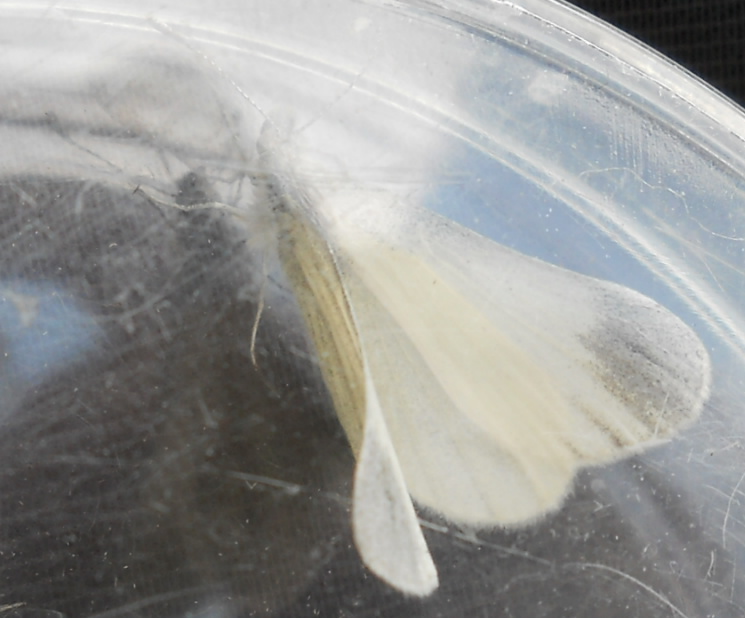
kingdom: Animalia
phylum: Arthropoda
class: Insecta
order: Lepidoptera
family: Pieridae
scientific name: Pieridae
